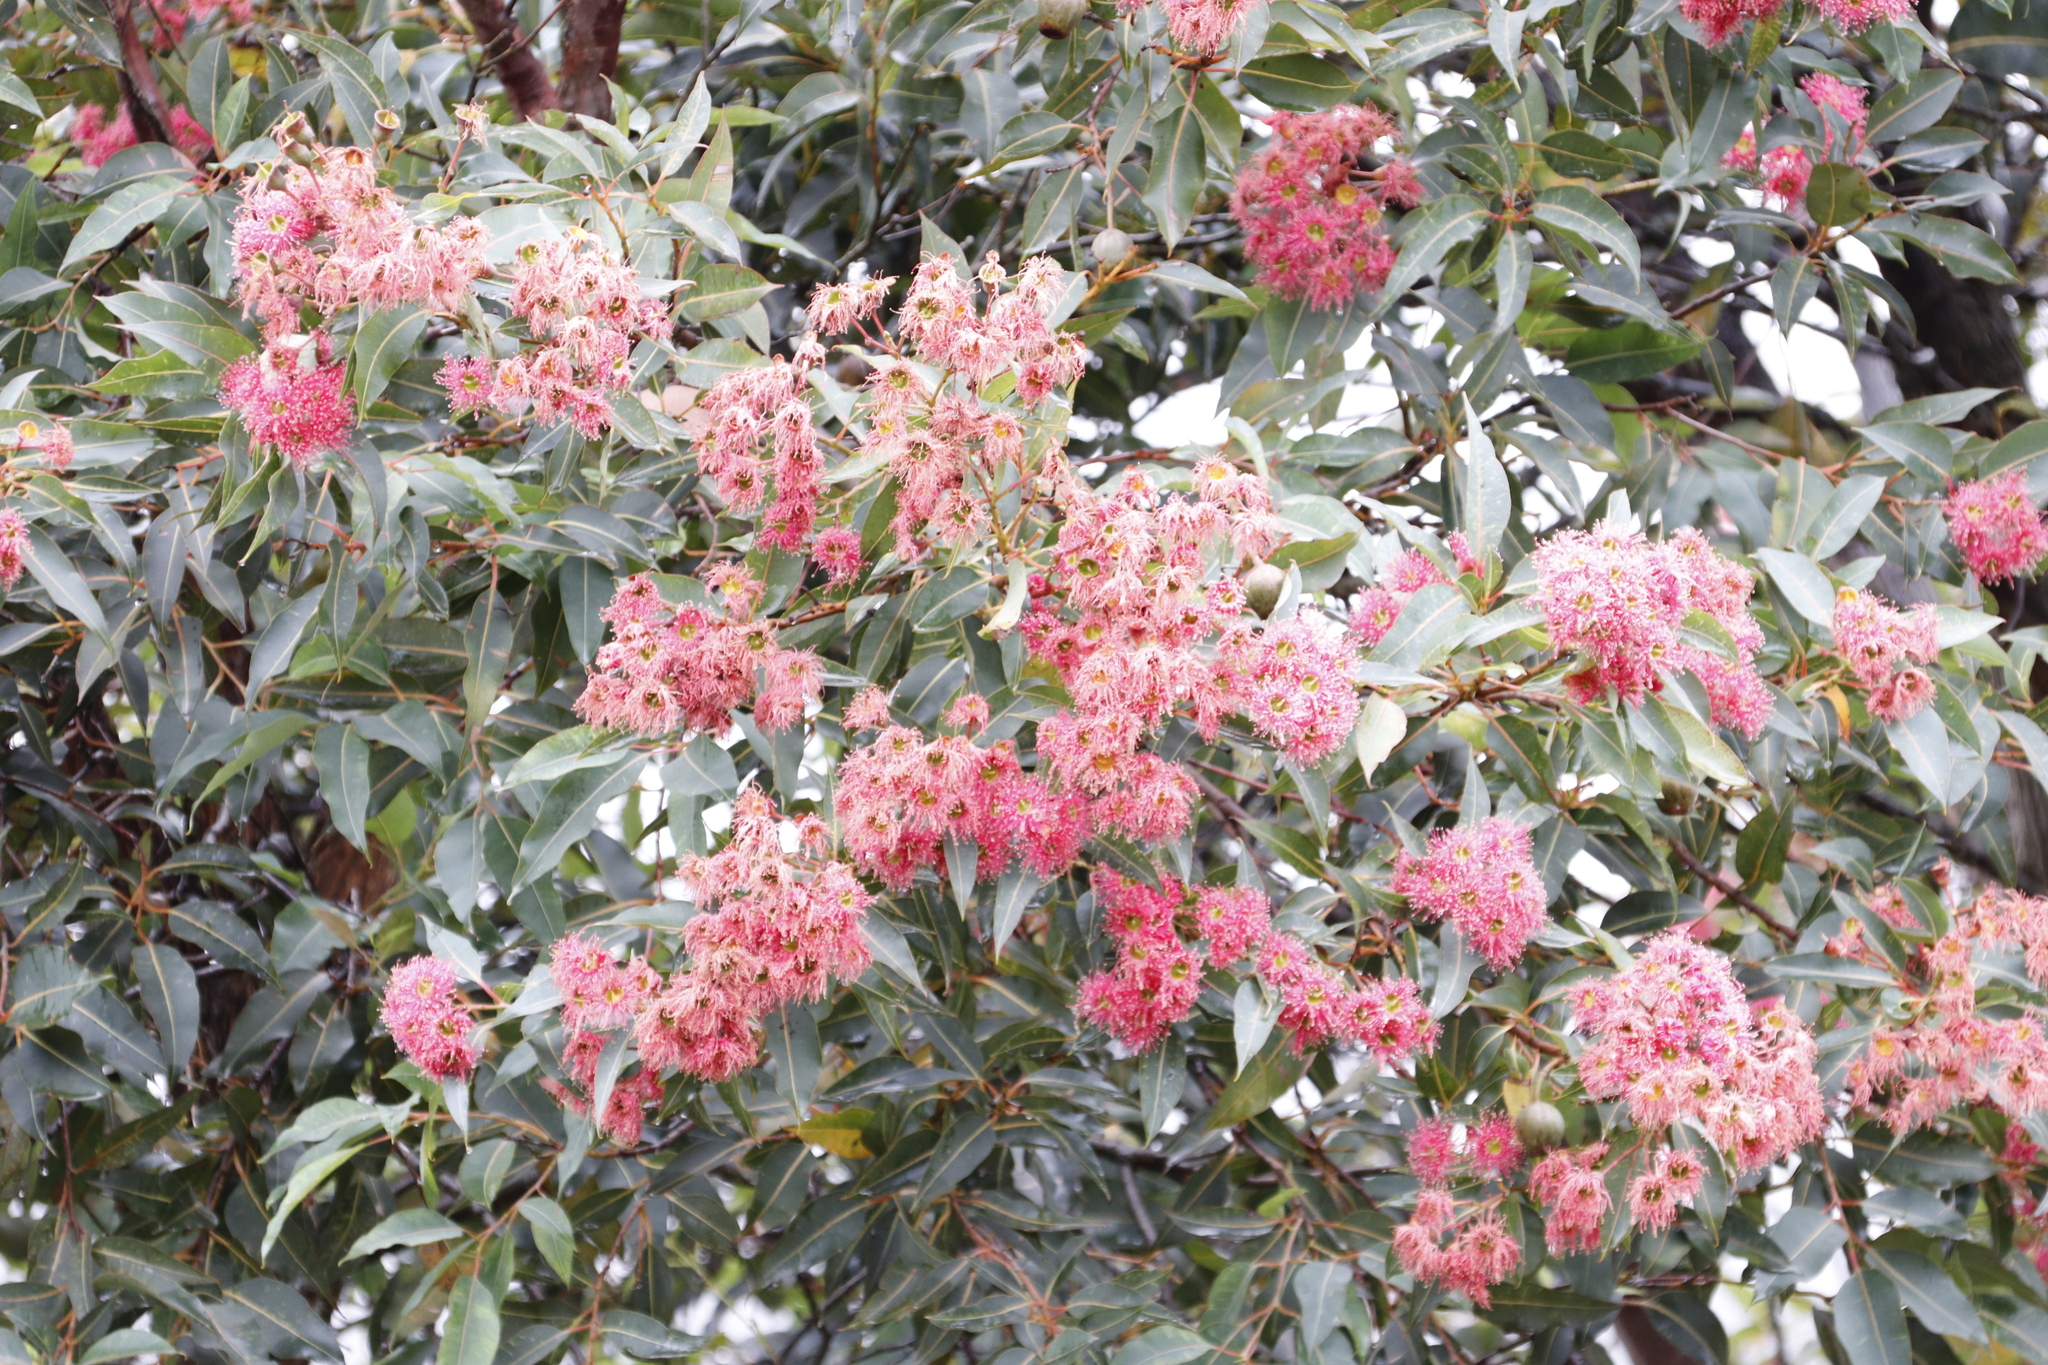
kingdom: Plantae
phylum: Tracheophyta
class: Magnoliopsida
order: Myrtales
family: Myrtaceae
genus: Corymbia
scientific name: Corymbia ficifolia
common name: Redflower gum
